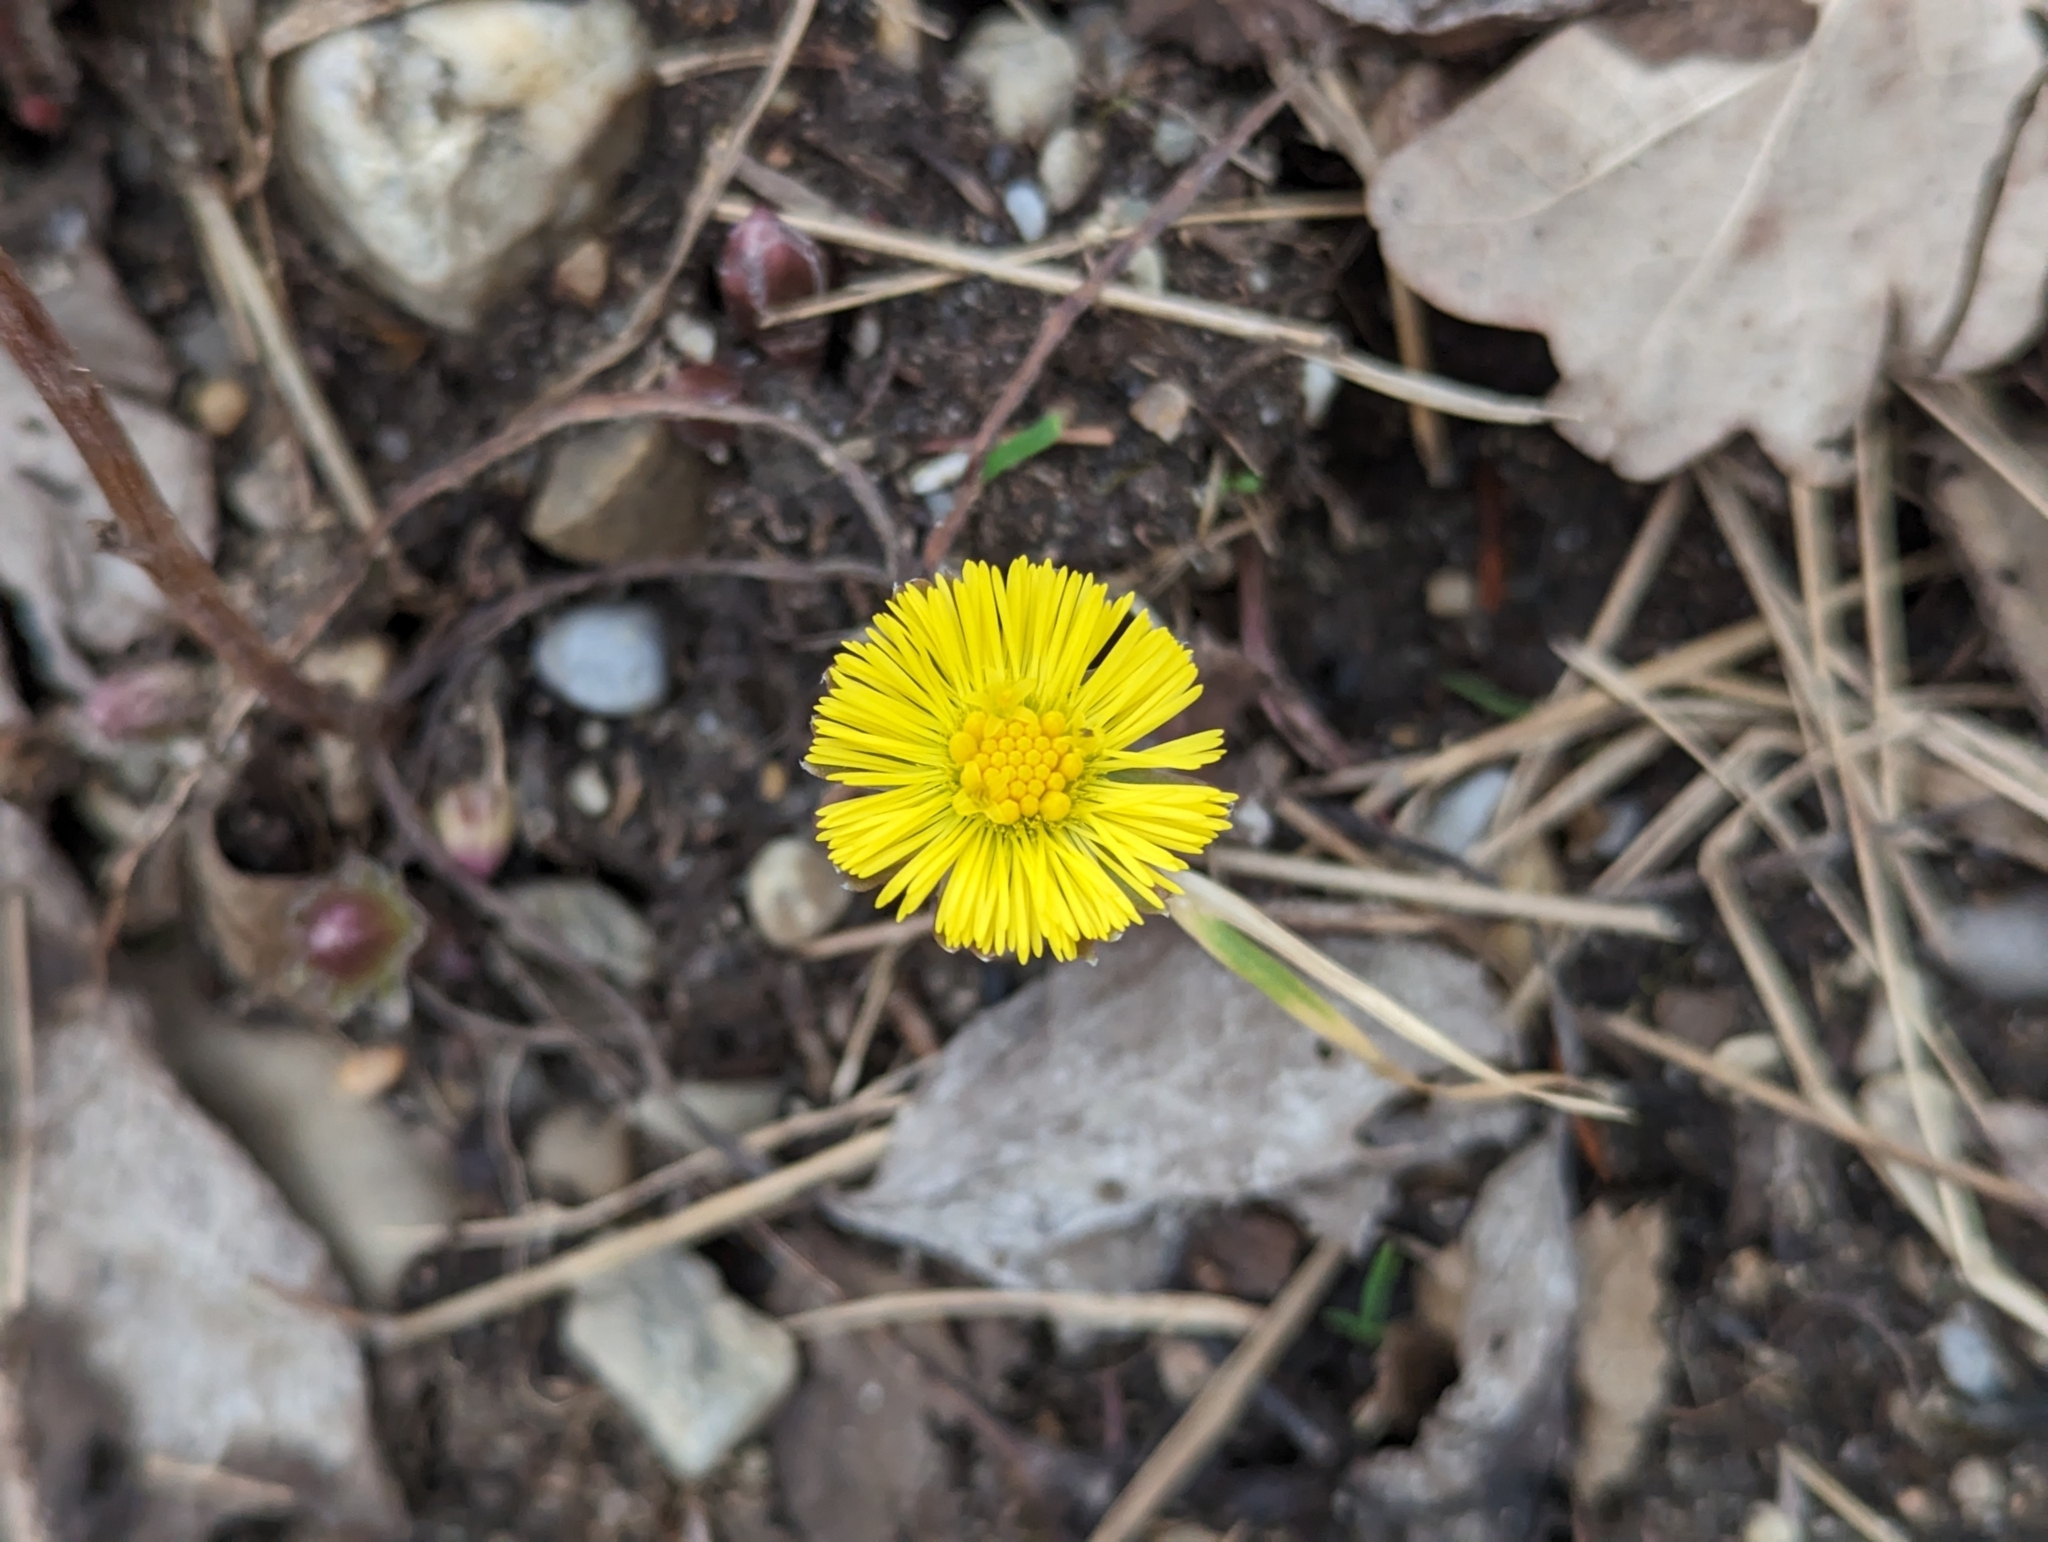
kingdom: Plantae
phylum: Tracheophyta
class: Magnoliopsida
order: Asterales
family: Asteraceae
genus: Tussilago
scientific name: Tussilago farfara
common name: Coltsfoot
